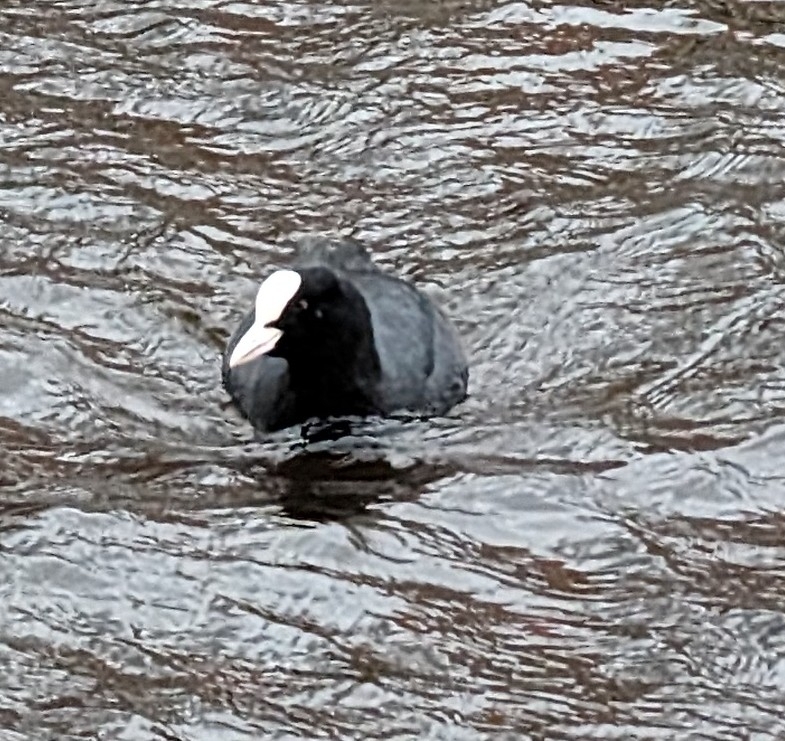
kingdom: Animalia
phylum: Chordata
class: Aves
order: Gruiformes
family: Rallidae
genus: Fulica
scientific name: Fulica atra
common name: Eurasian coot
